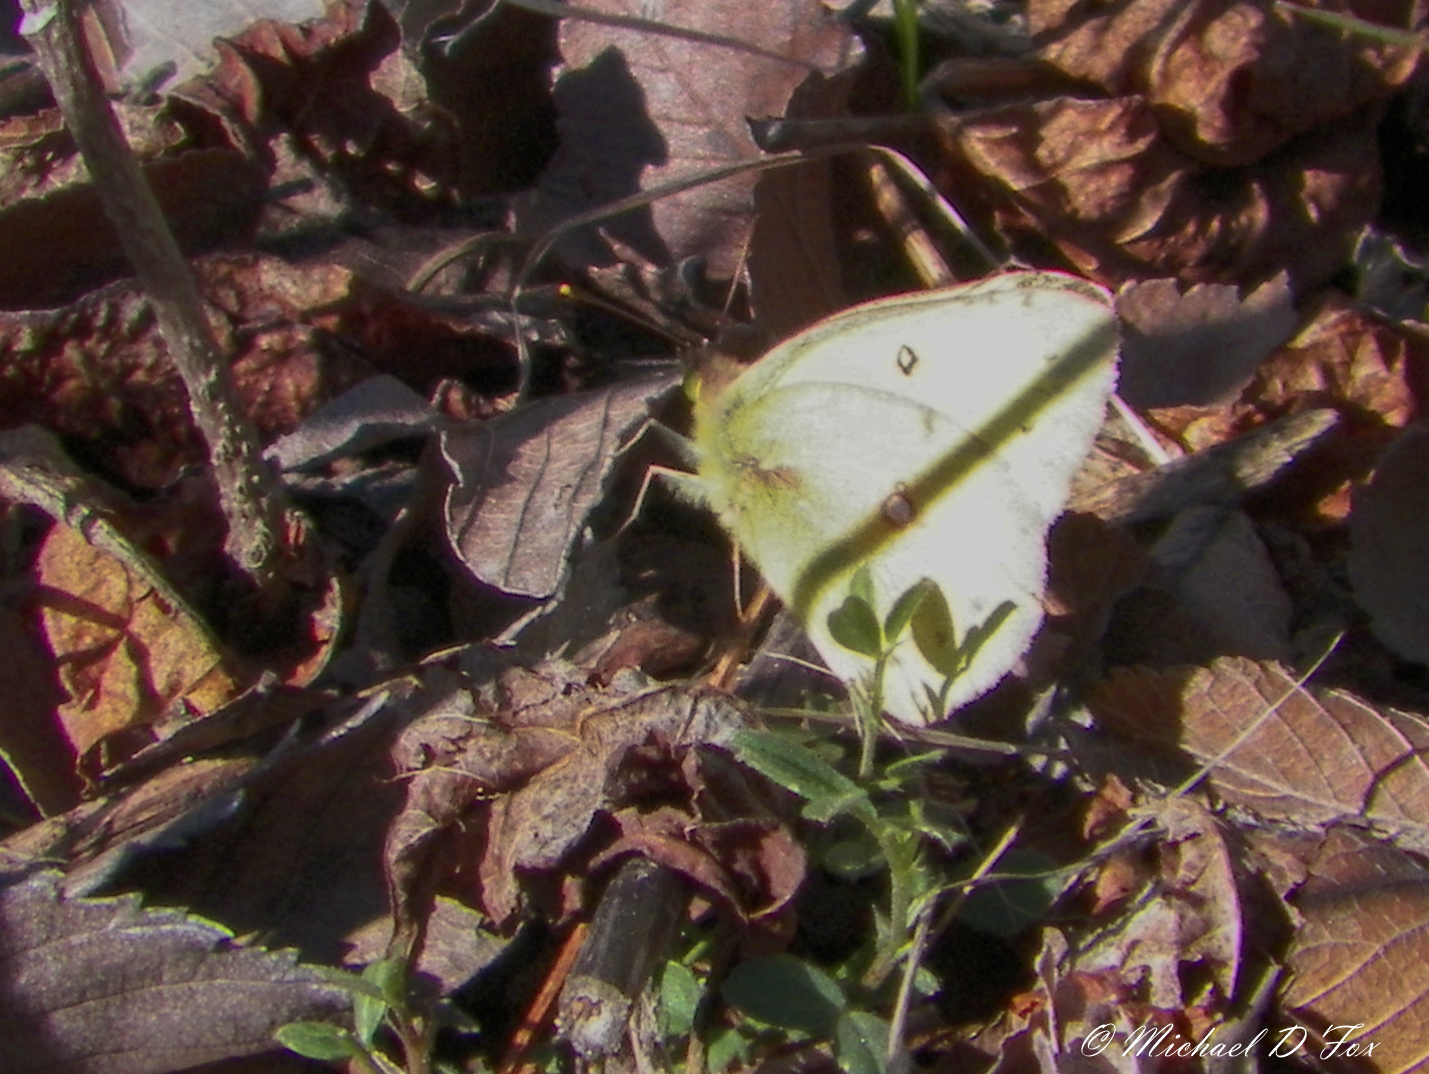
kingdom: Animalia
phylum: Arthropoda
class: Insecta
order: Lepidoptera
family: Pieridae
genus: Colias
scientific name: Colias eurytheme
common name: Alfalfa butterfly
